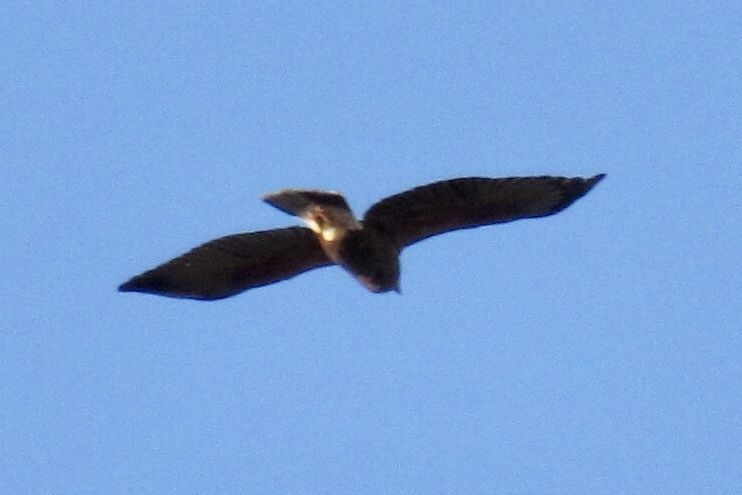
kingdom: Animalia
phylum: Chordata
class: Aves
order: Accipitriformes
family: Accipitridae
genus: Parabuteo
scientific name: Parabuteo unicinctus
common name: Harris's hawk
